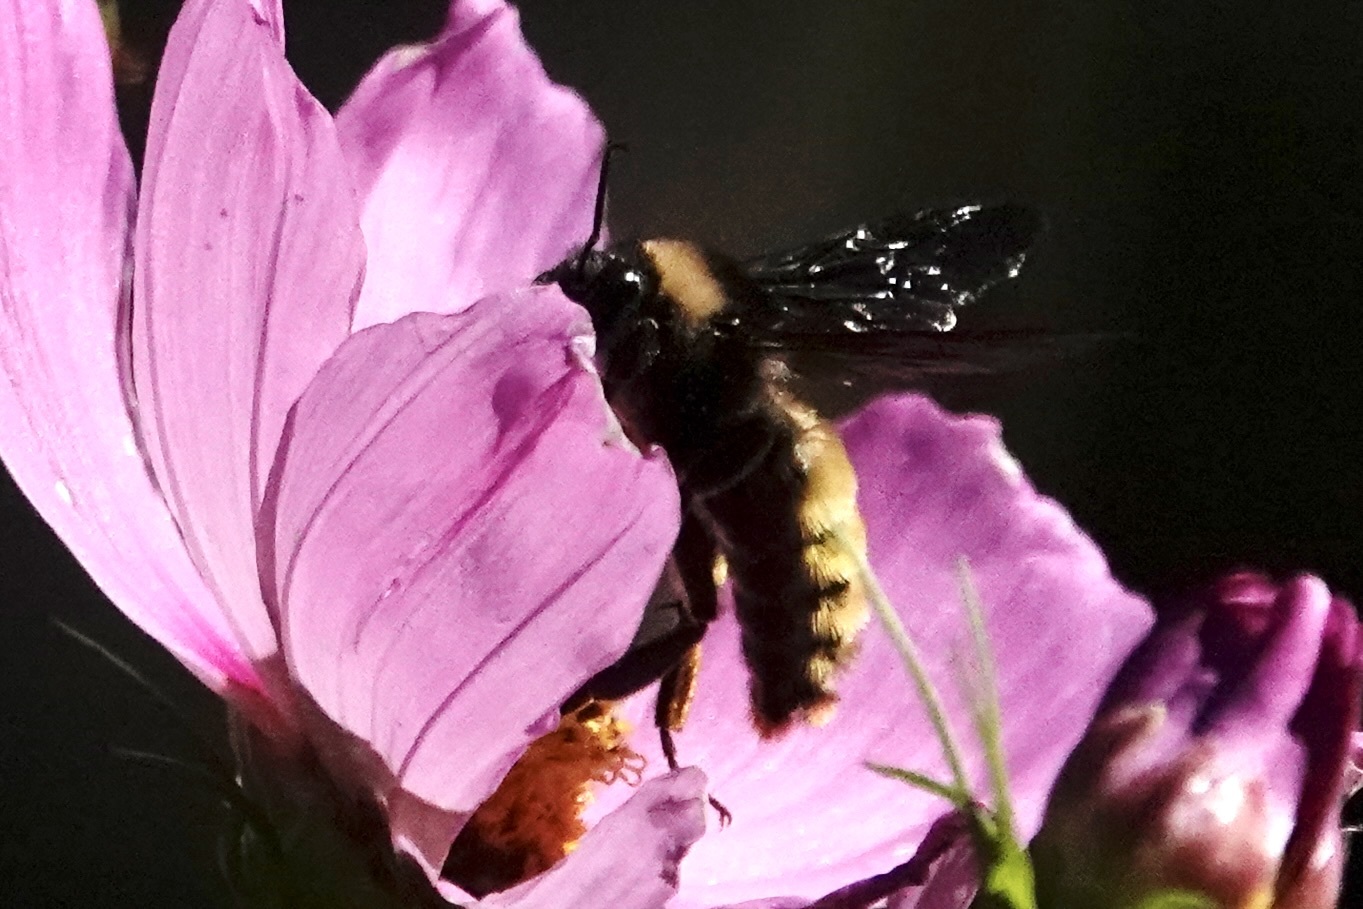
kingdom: Animalia
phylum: Arthropoda
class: Insecta
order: Hymenoptera
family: Apidae
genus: Bombus
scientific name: Bombus pensylvanicus
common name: Bumble bee
